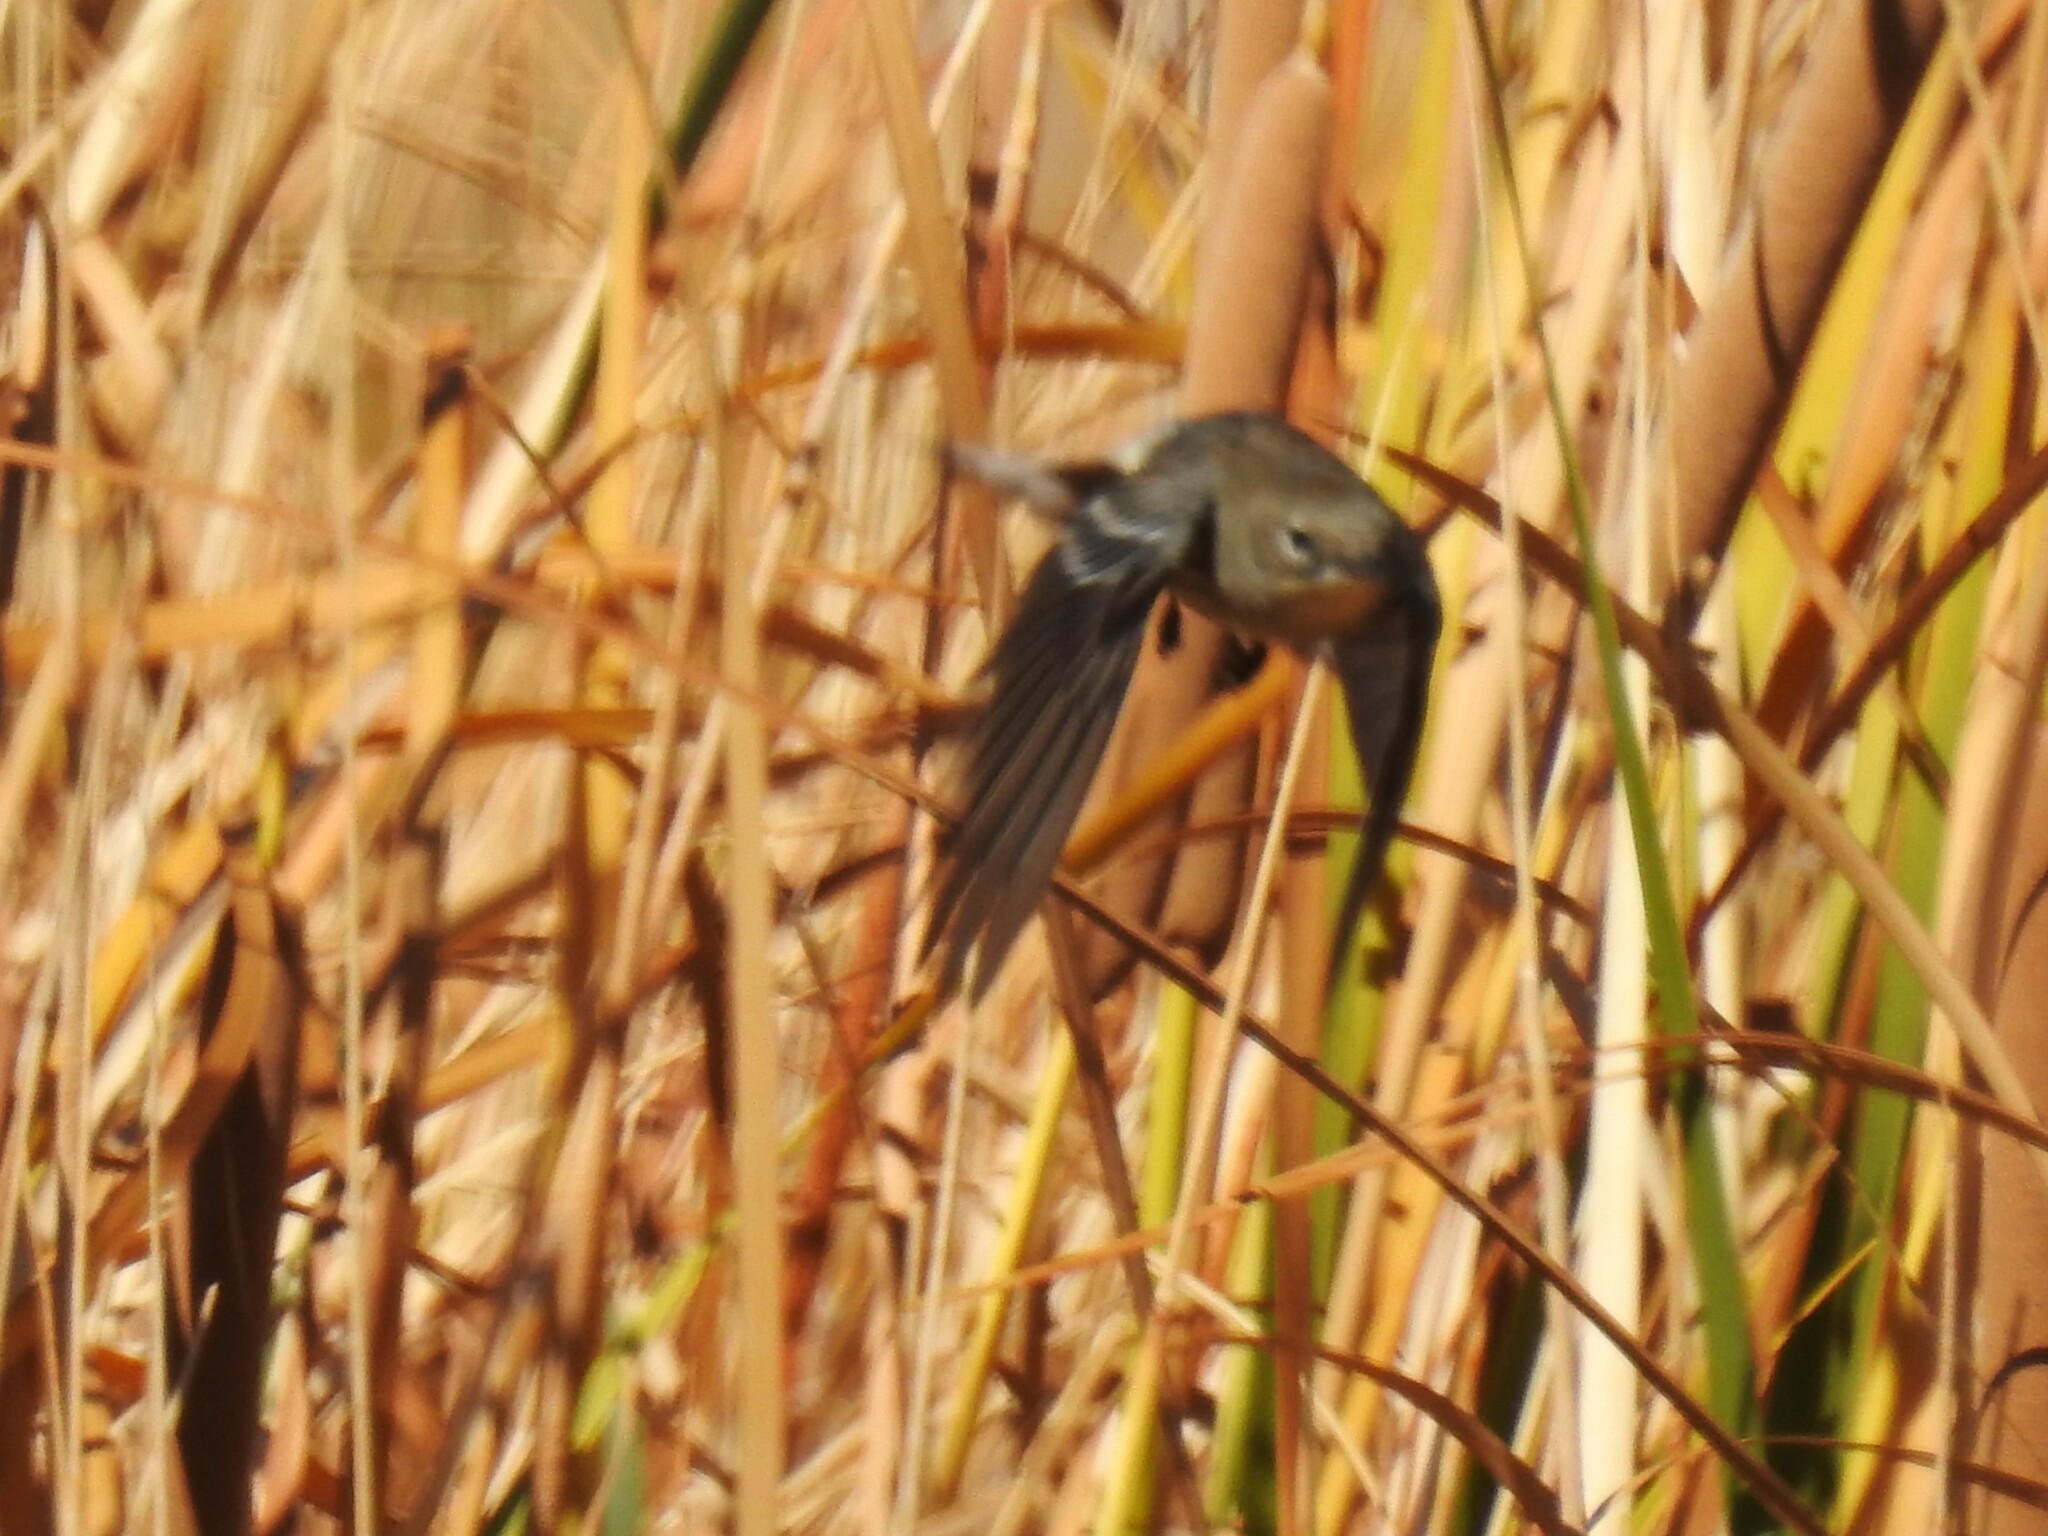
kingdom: Animalia
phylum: Chordata
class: Aves
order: Passeriformes
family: Parulidae
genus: Setophaga
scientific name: Setophaga coronata
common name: Myrtle warbler
